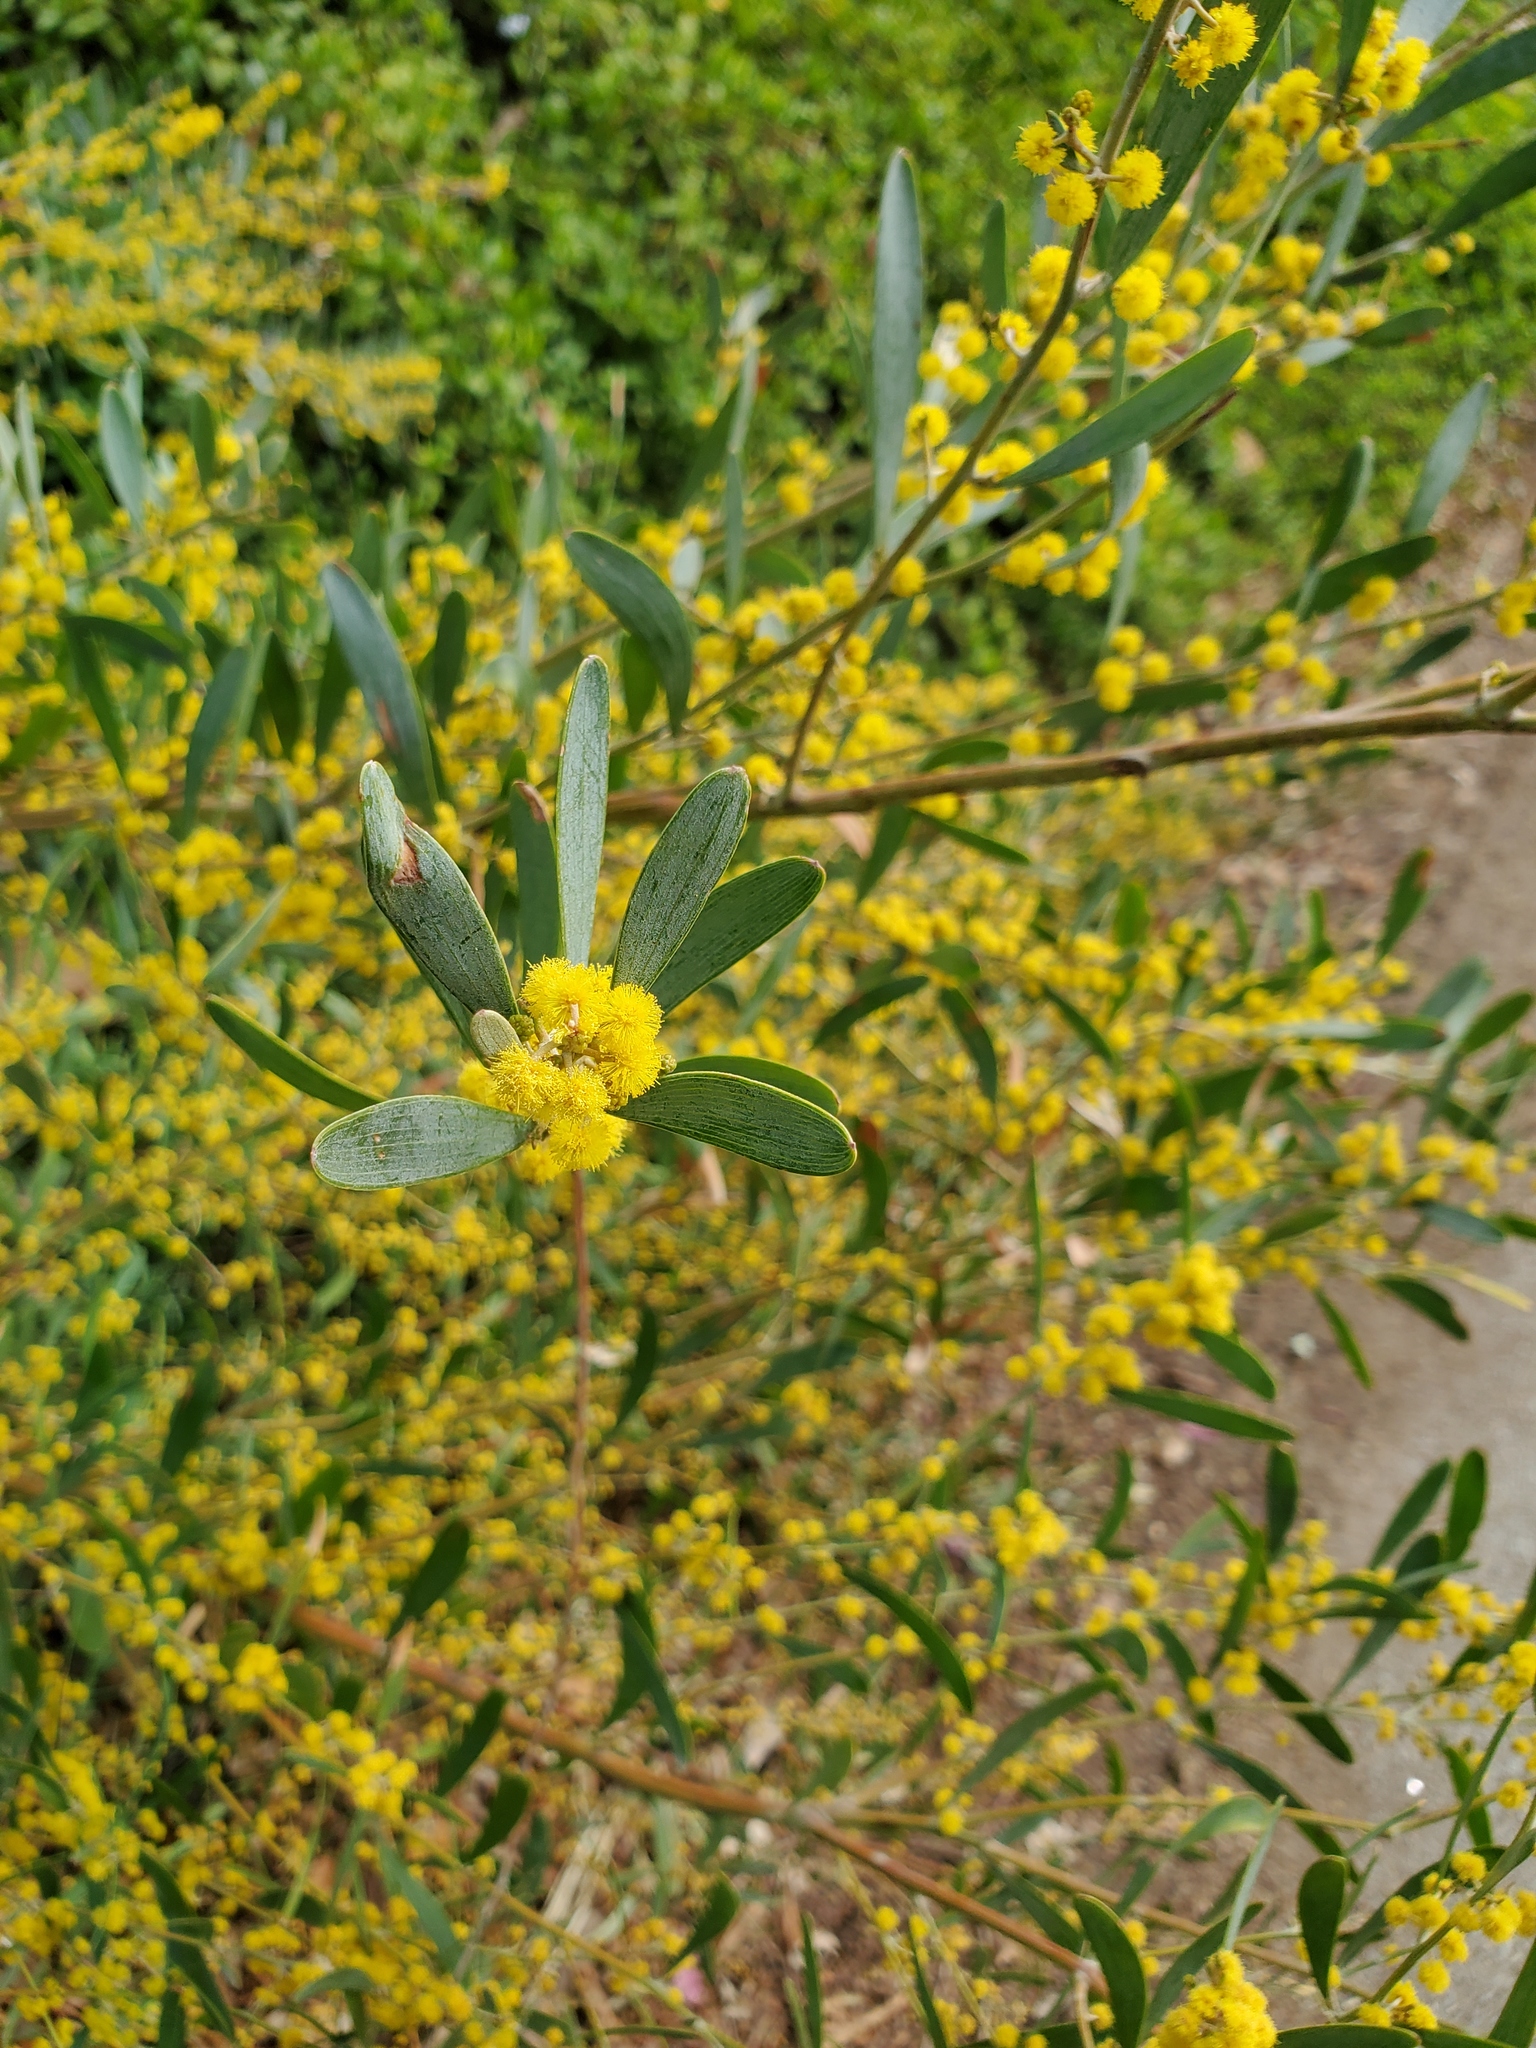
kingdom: Plantae
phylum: Tracheophyta
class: Magnoliopsida
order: Fabales
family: Fabaceae
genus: Acacia
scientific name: Acacia redolens
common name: Bank catclaw
